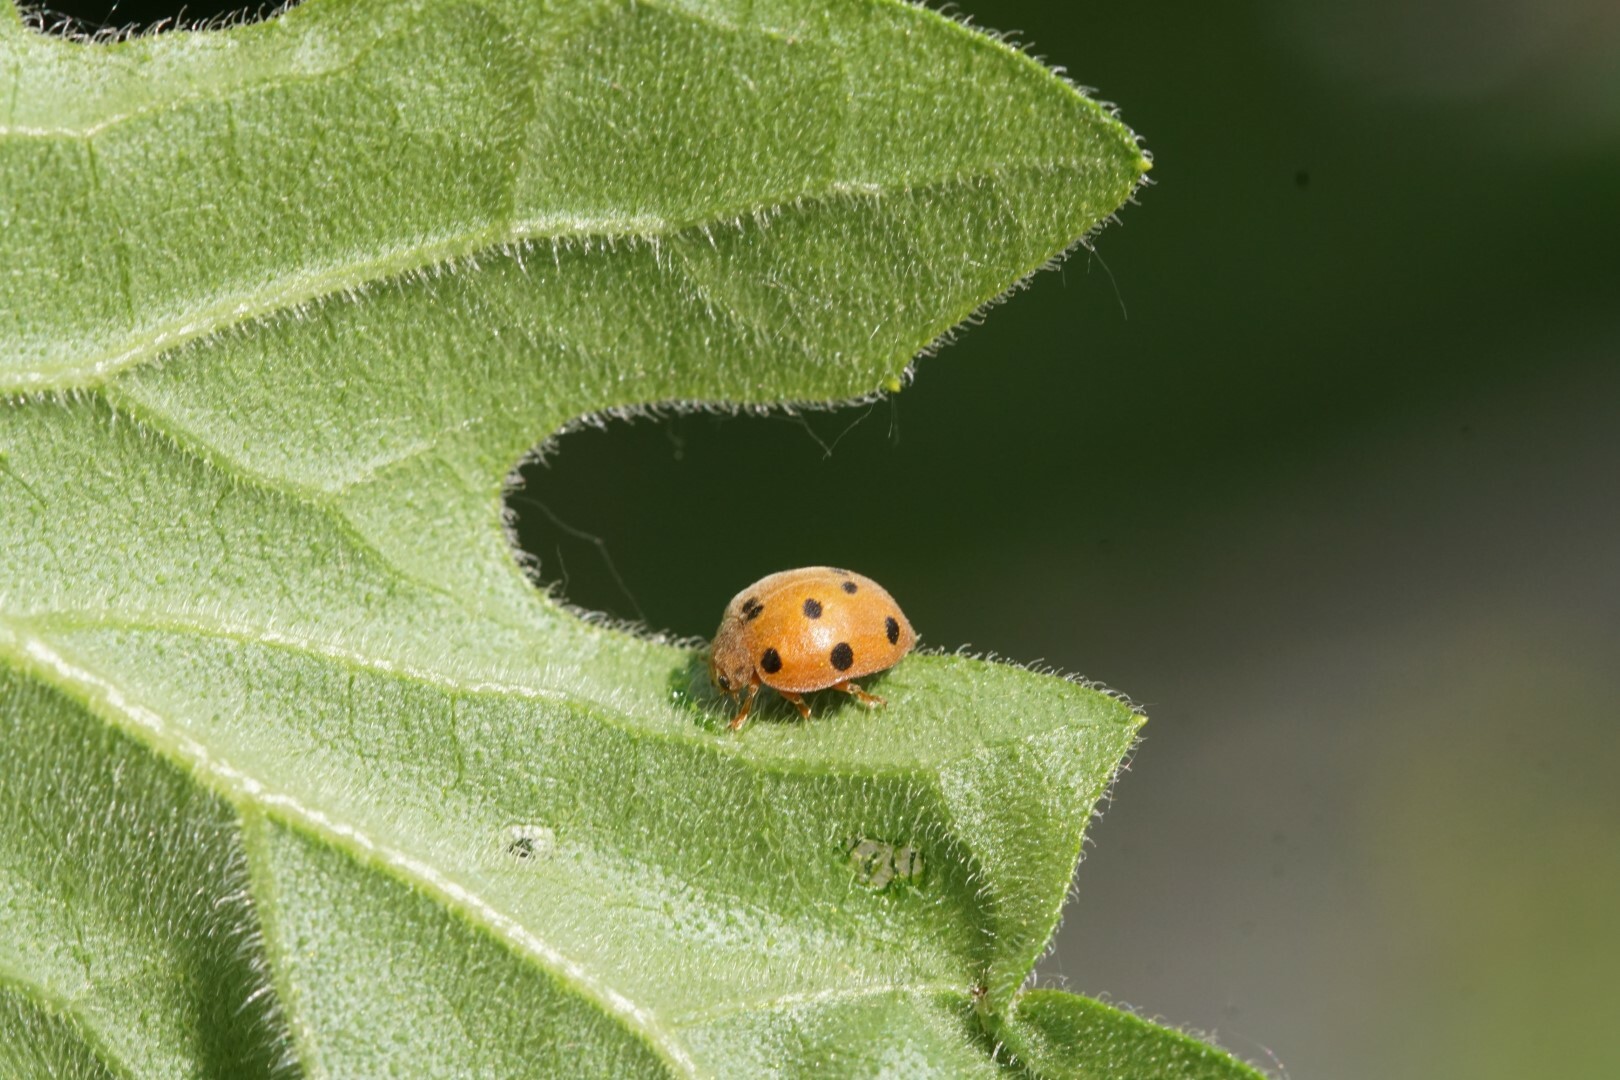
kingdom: Animalia
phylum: Arthropoda
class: Insecta
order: Coleoptera
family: Coccinellidae
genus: Henosepilachna
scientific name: Henosepilachna argus
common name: Bryony ladybird
